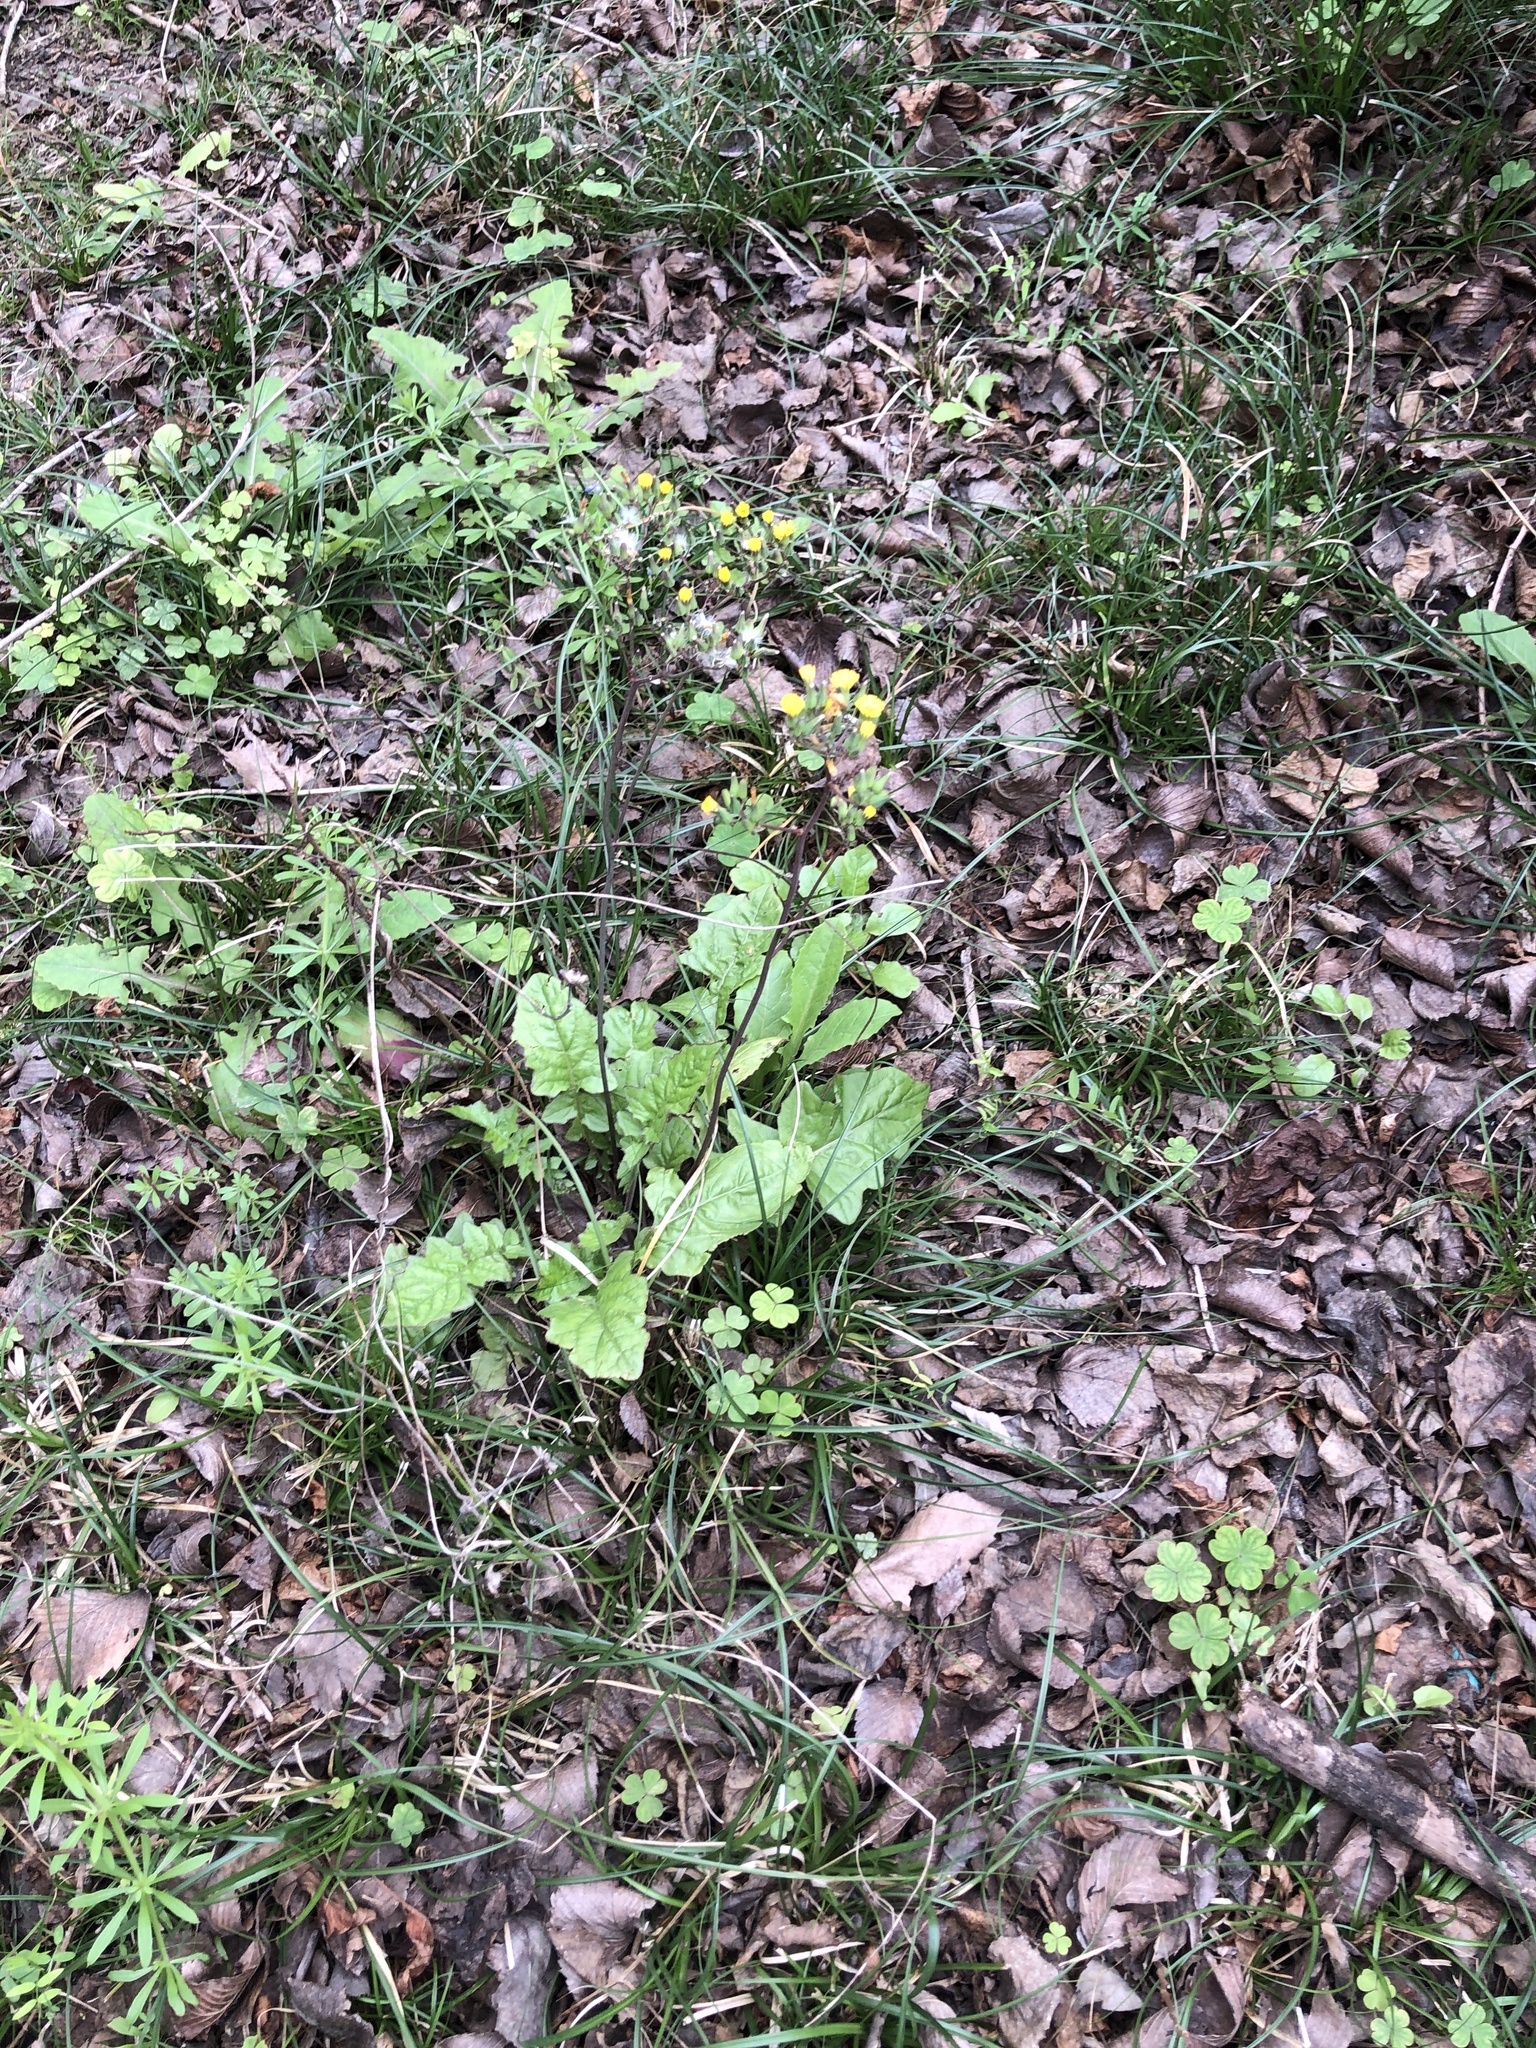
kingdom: Plantae
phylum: Tracheophyta
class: Magnoliopsida
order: Asterales
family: Asteraceae
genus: Youngia
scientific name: Youngia japonica
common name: Oriental false hawksbeard
